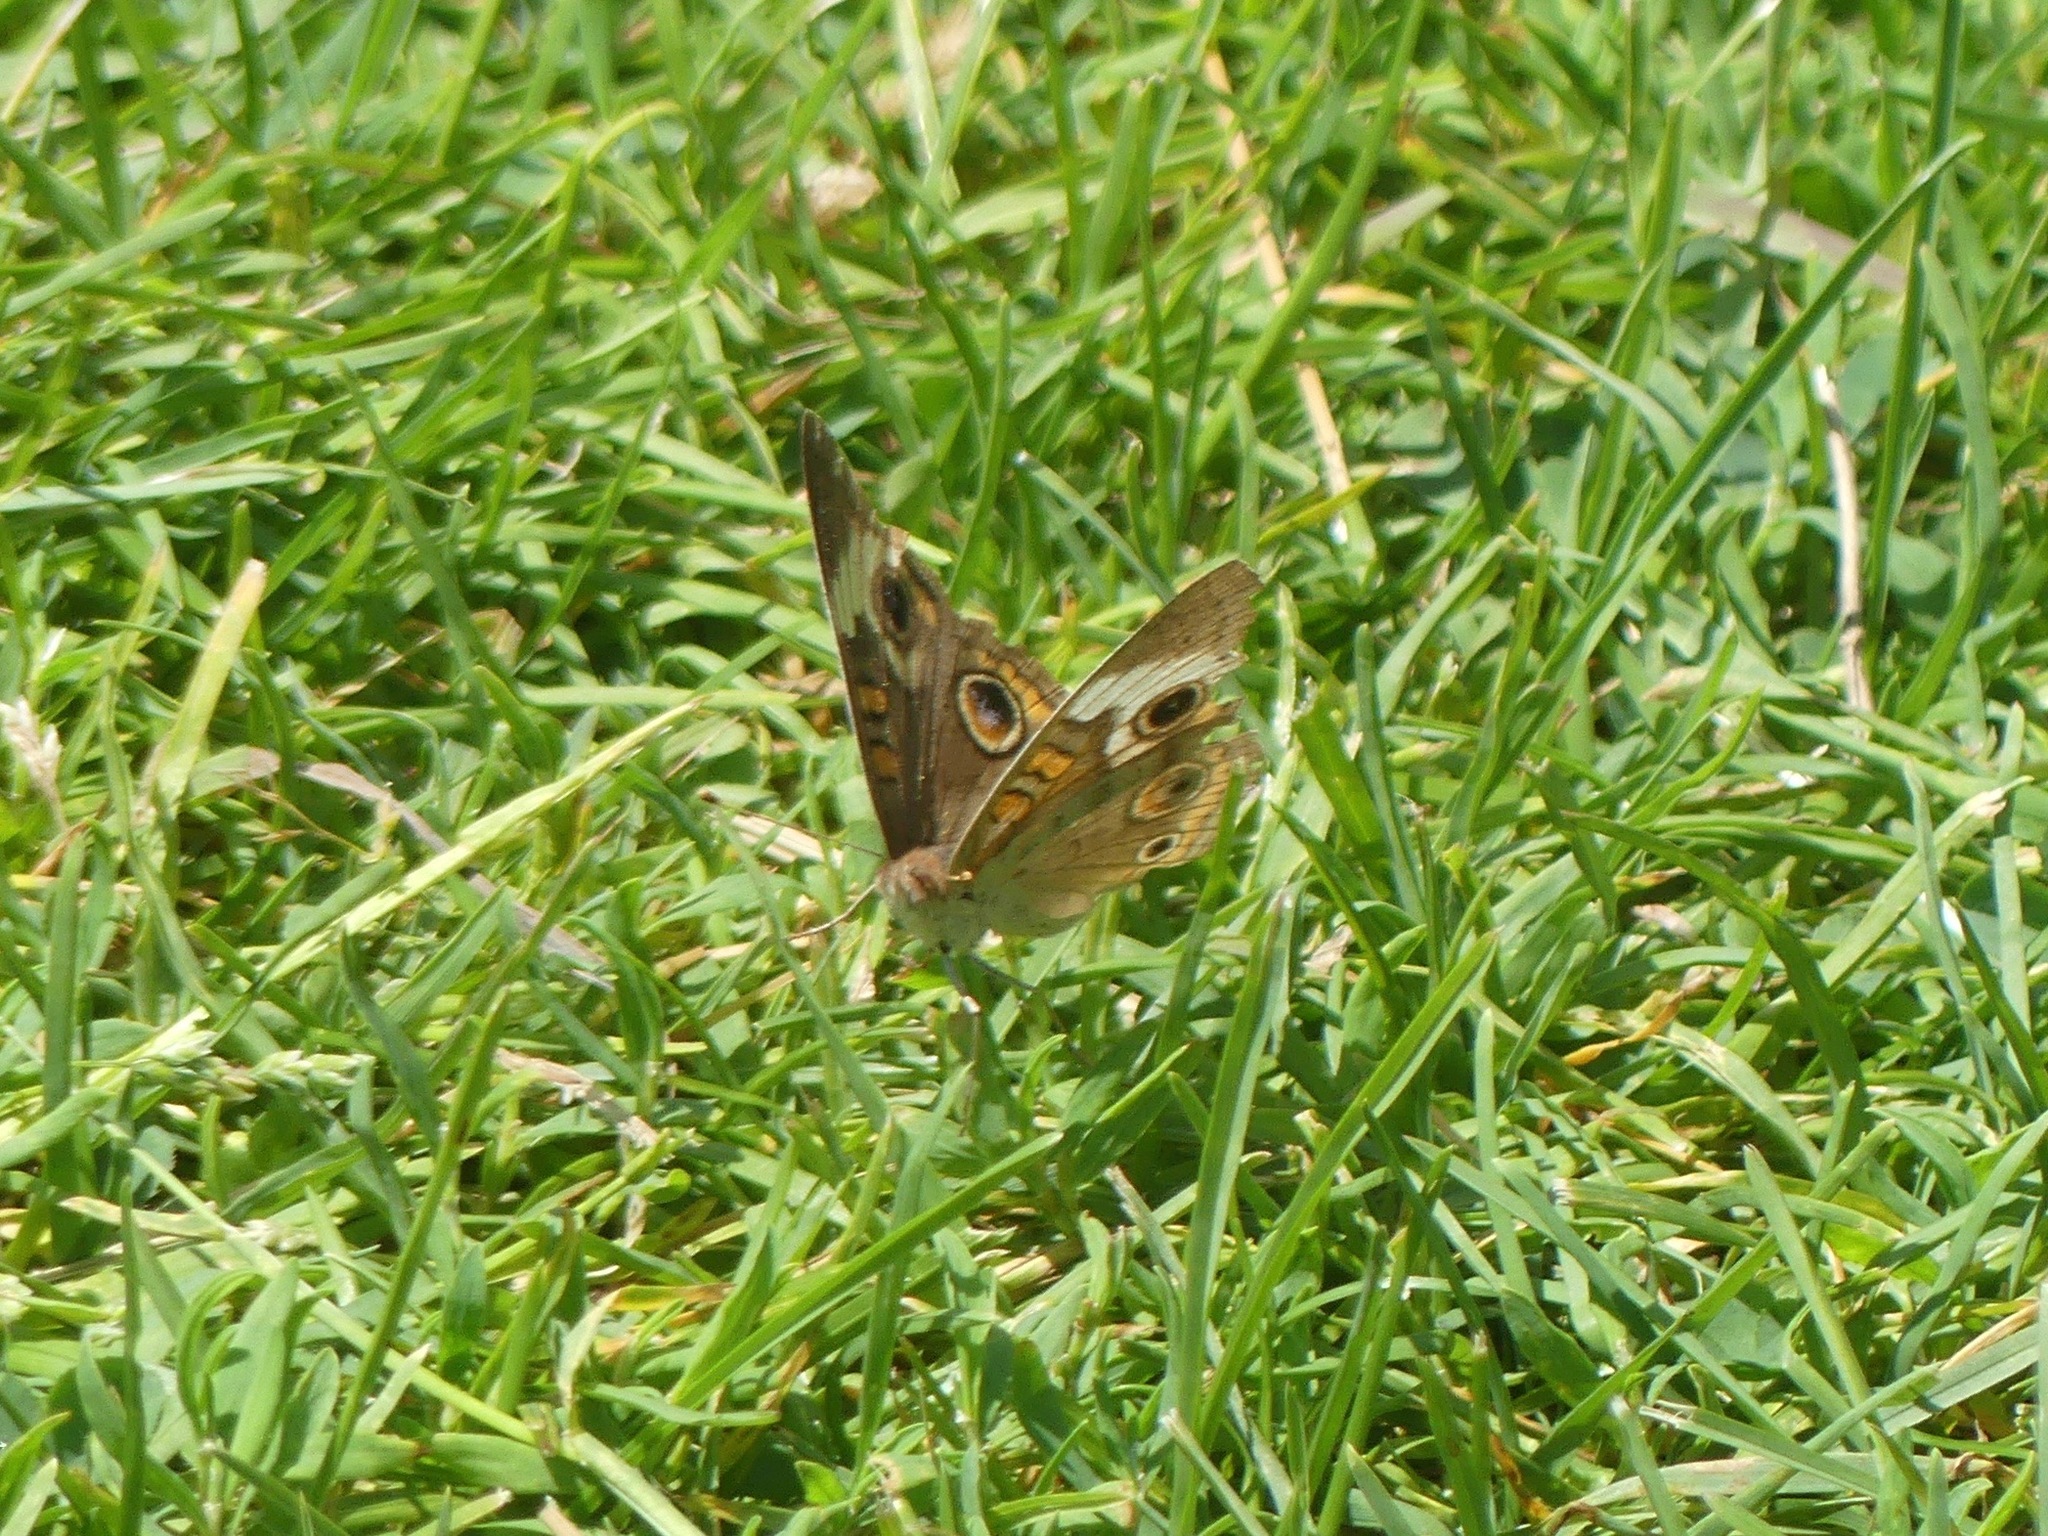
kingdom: Animalia
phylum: Arthropoda
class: Insecta
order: Lepidoptera
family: Nymphalidae
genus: Junonia
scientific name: Junonia coenia
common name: Common buckeye
